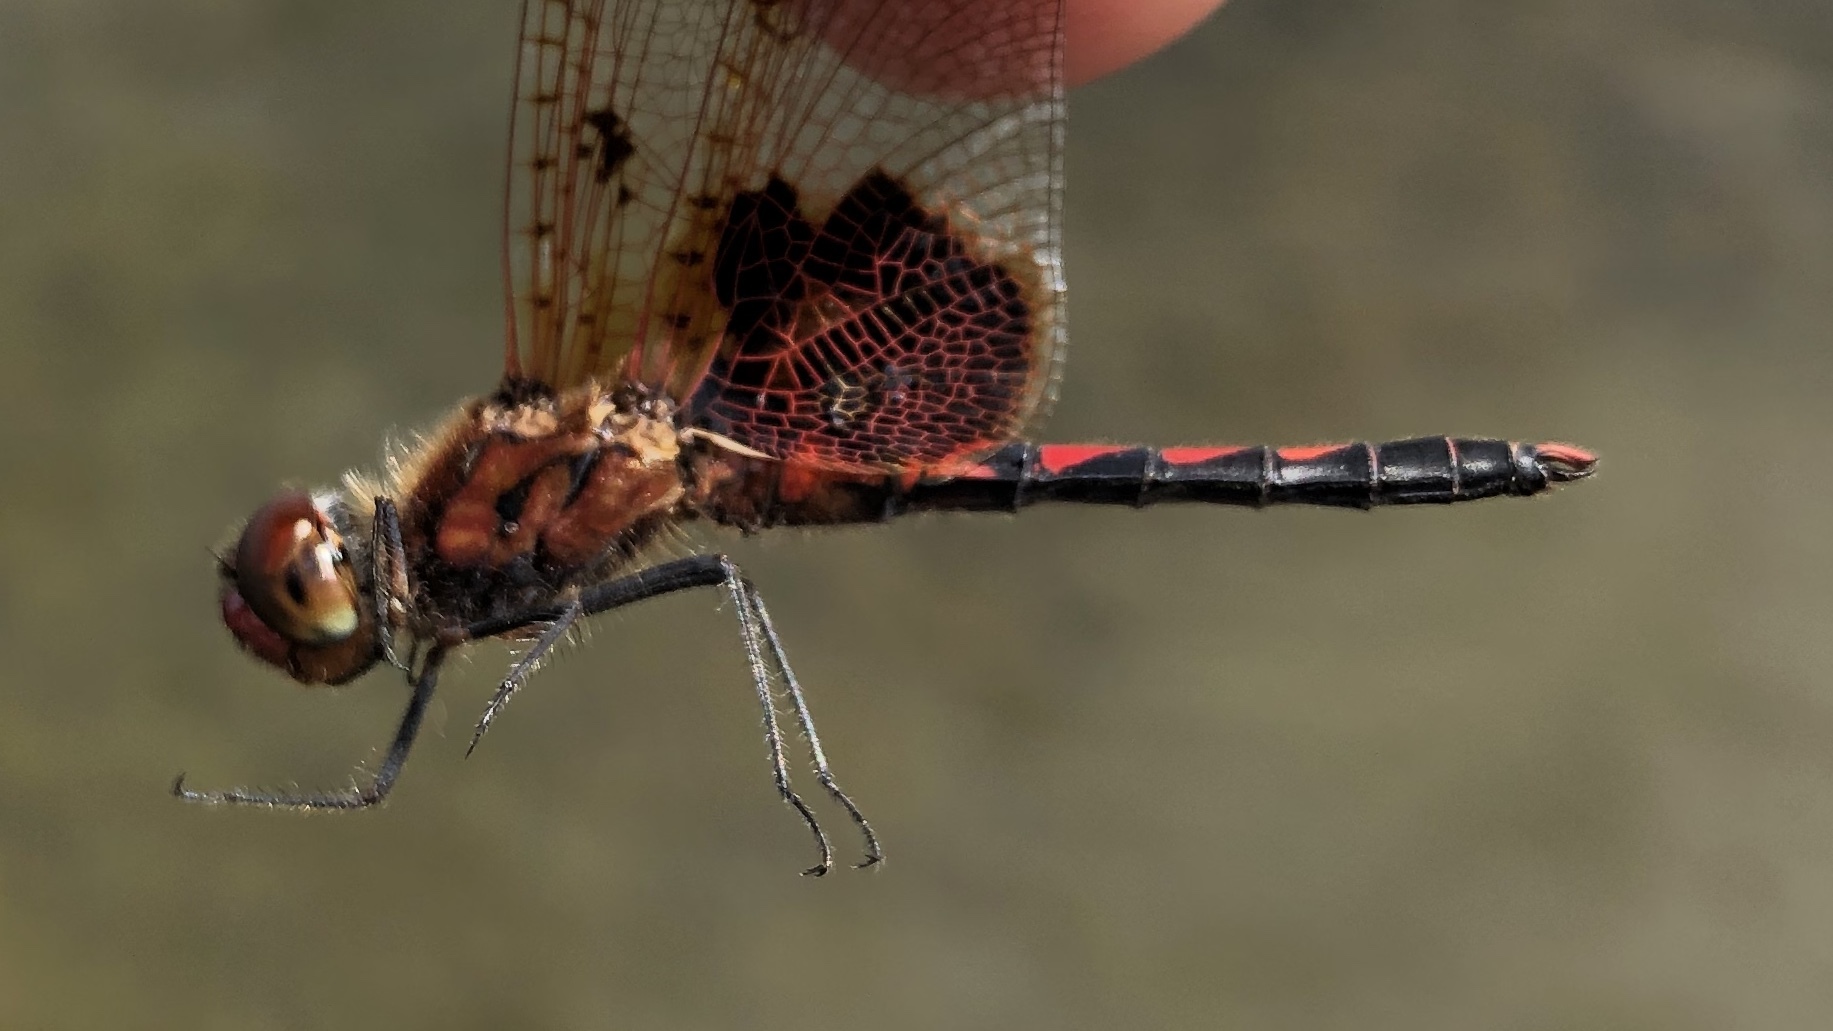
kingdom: Animalia
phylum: Arthropoda
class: Insecta
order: Odonata
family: Libellulidae
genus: Celithemis
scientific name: Celithemis elisa
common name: Calico pennant
